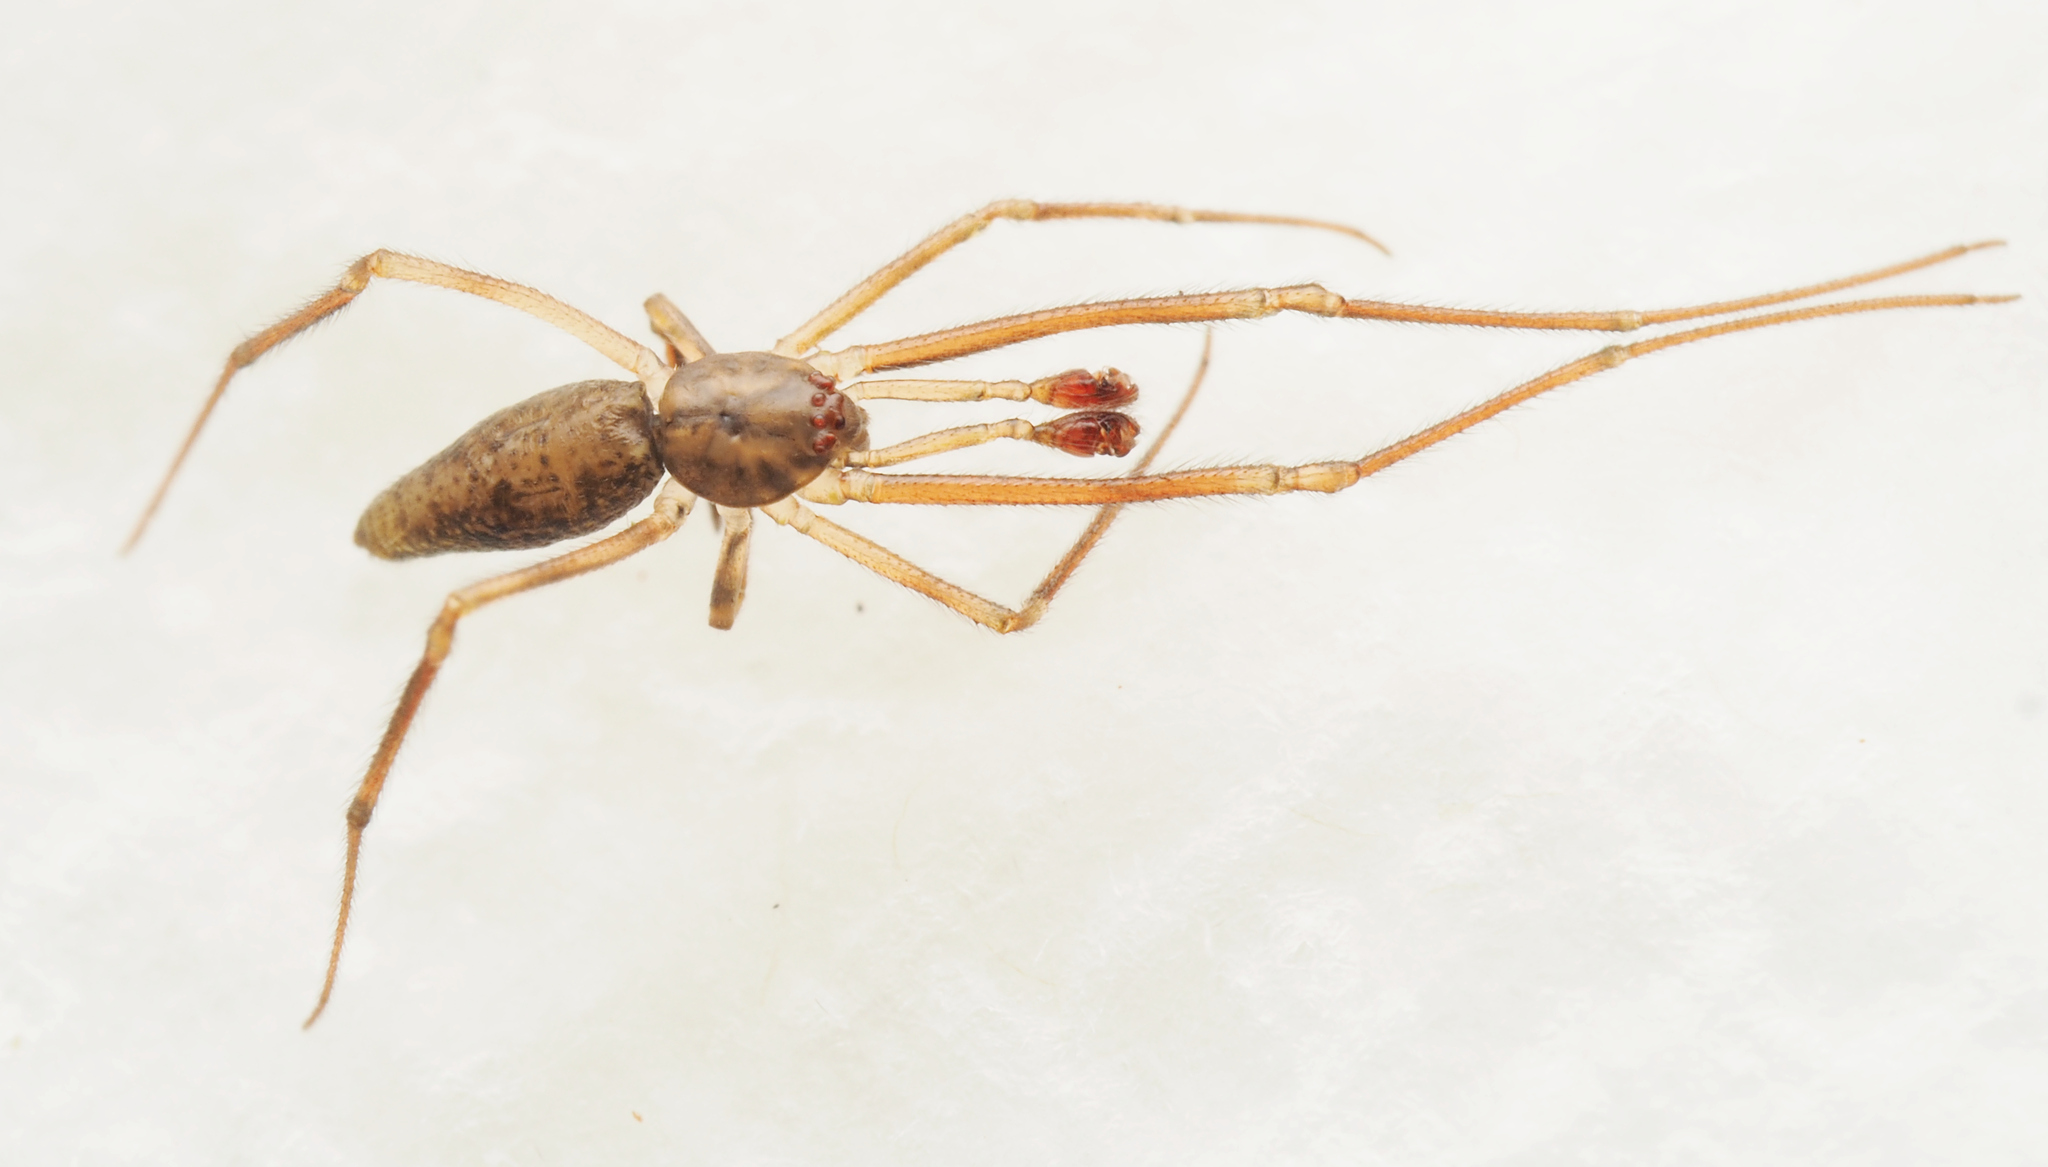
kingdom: Animalia
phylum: Arthropoda
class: Arachnida
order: Araneae
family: Theridiidae
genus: Moneta
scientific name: Moneta
